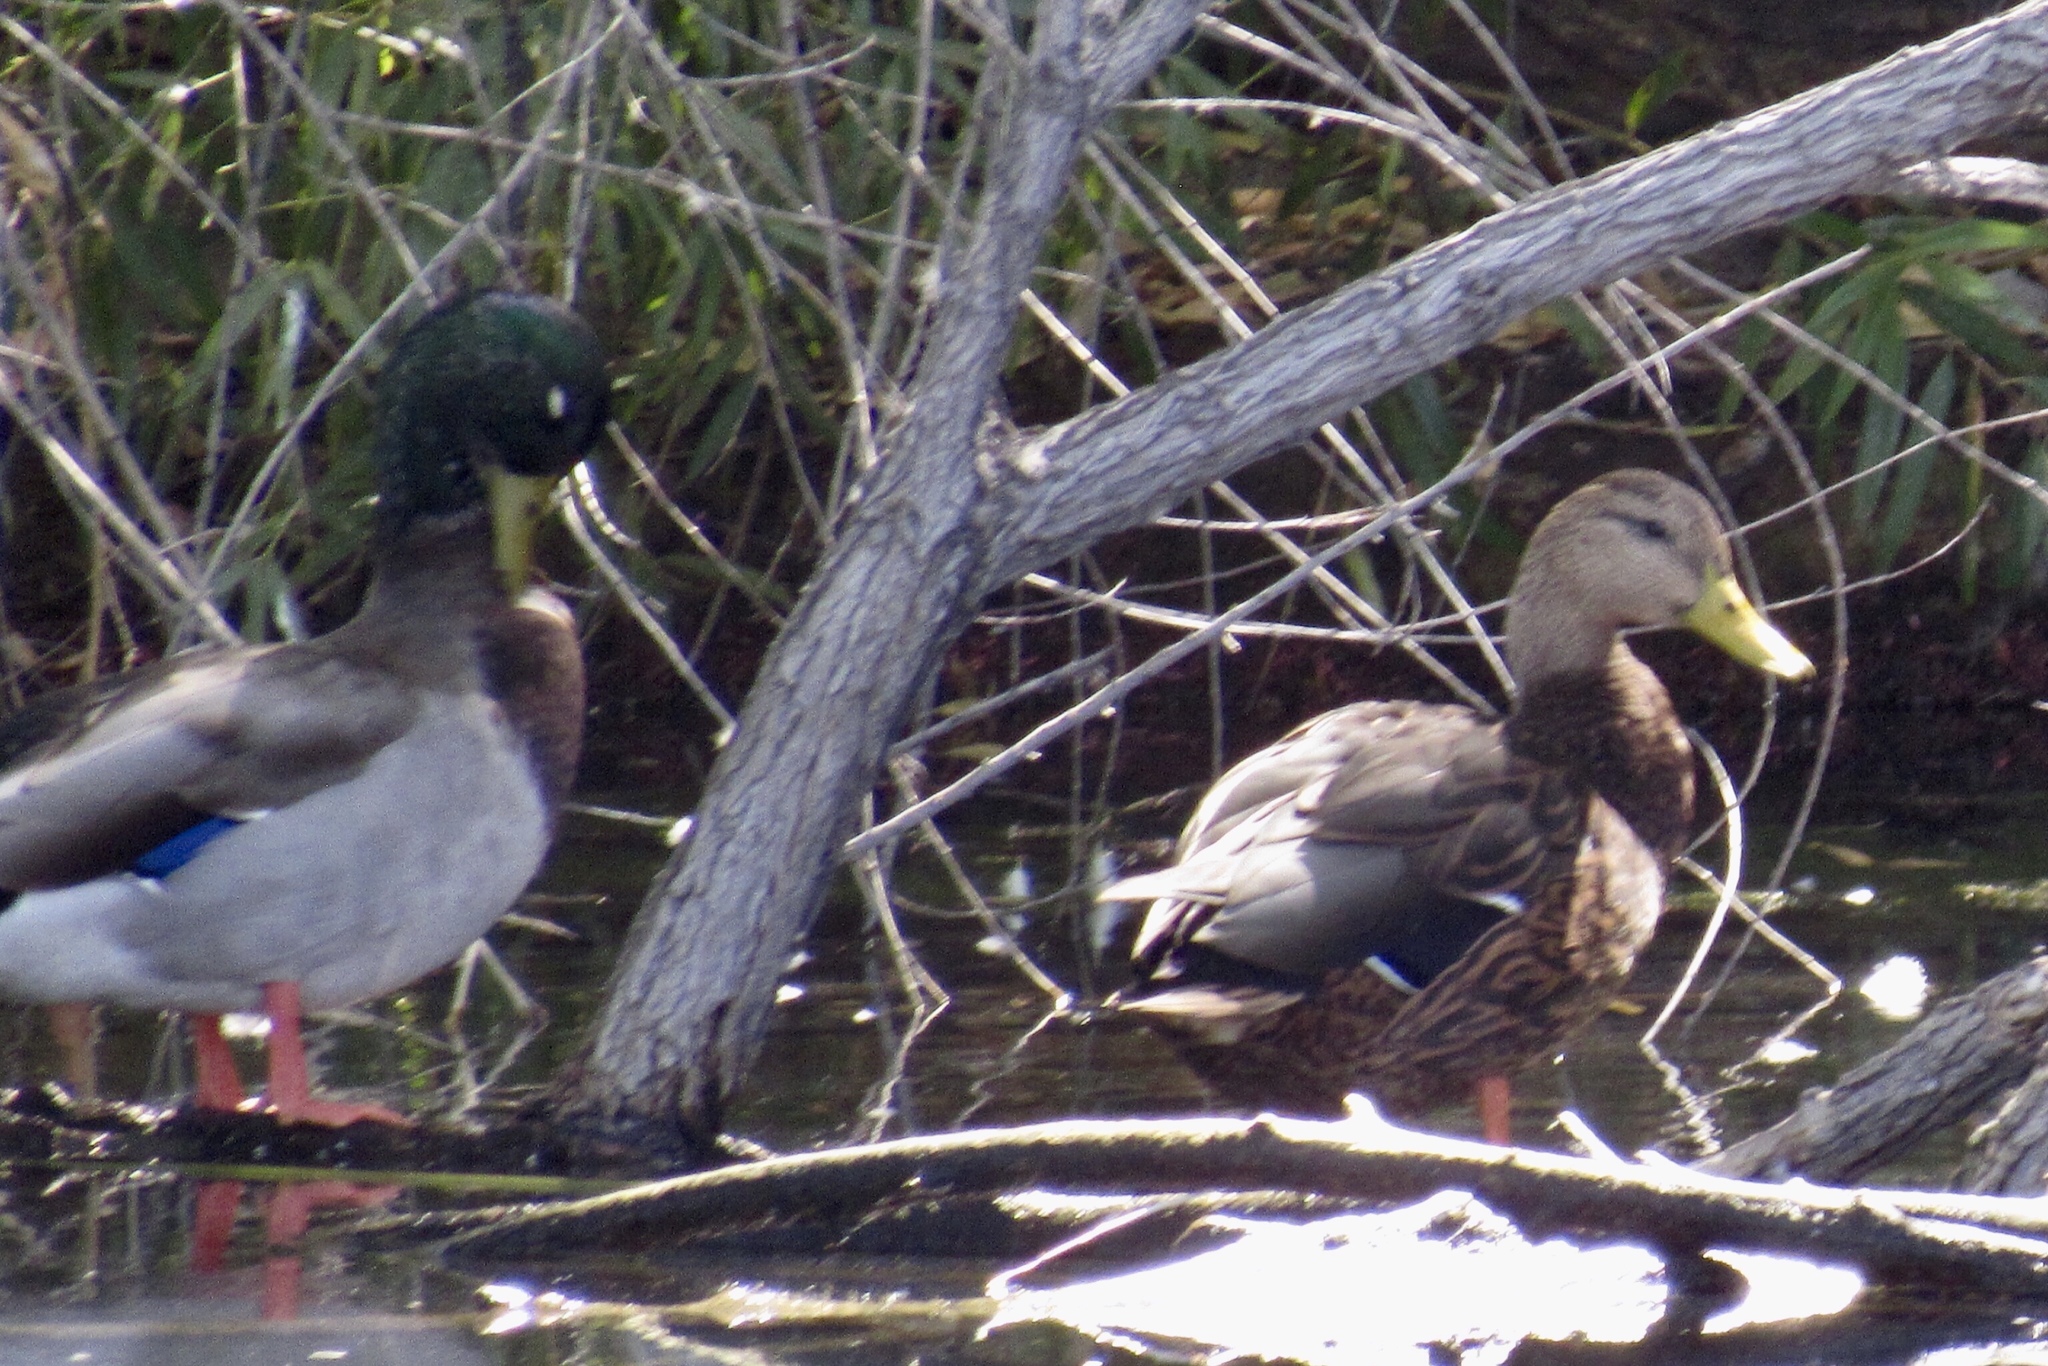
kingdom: Animalia
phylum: Chordata
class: Aves
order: Anseriformes
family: Anatidae
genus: Anas
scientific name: Anas platyrhynchos
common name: Mallard
